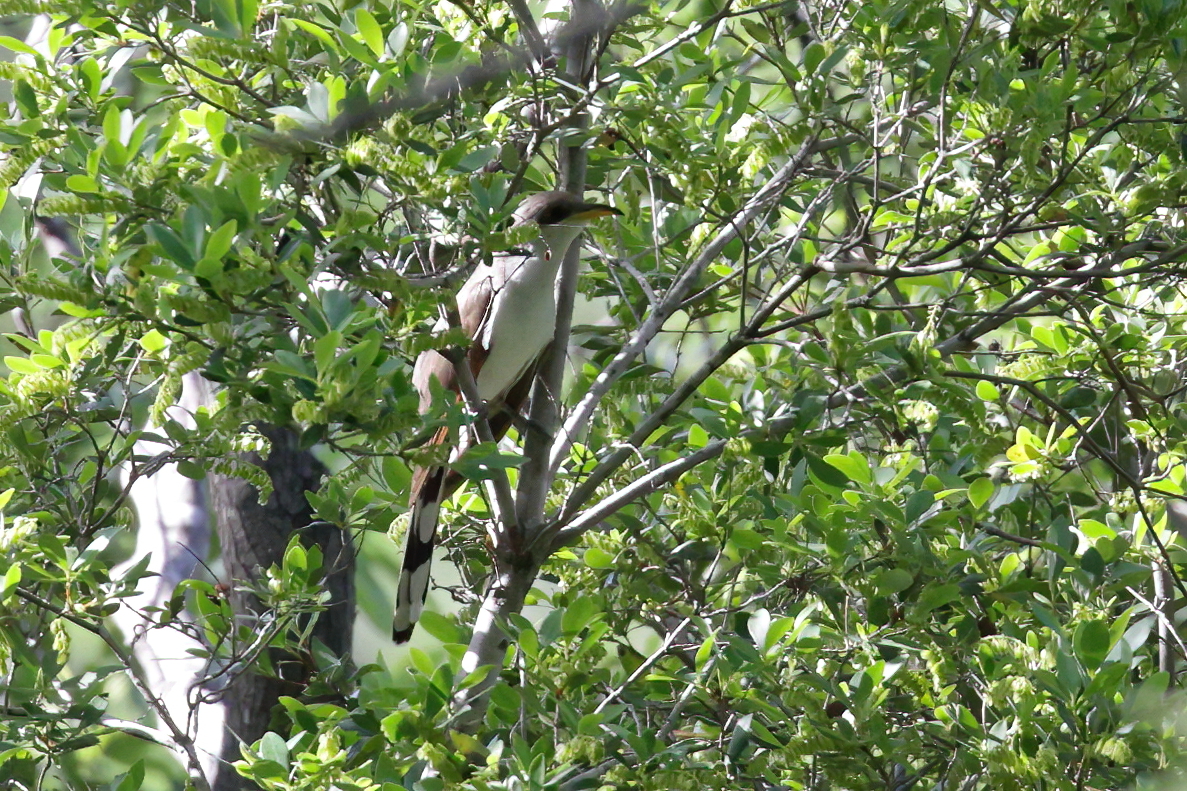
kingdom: Animalia
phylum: Chordata
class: Aves
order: Cuculiformes
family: Cuculidae
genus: Coccyzus
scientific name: Coccyzus americanus
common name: Yellow-billed cuckoo
